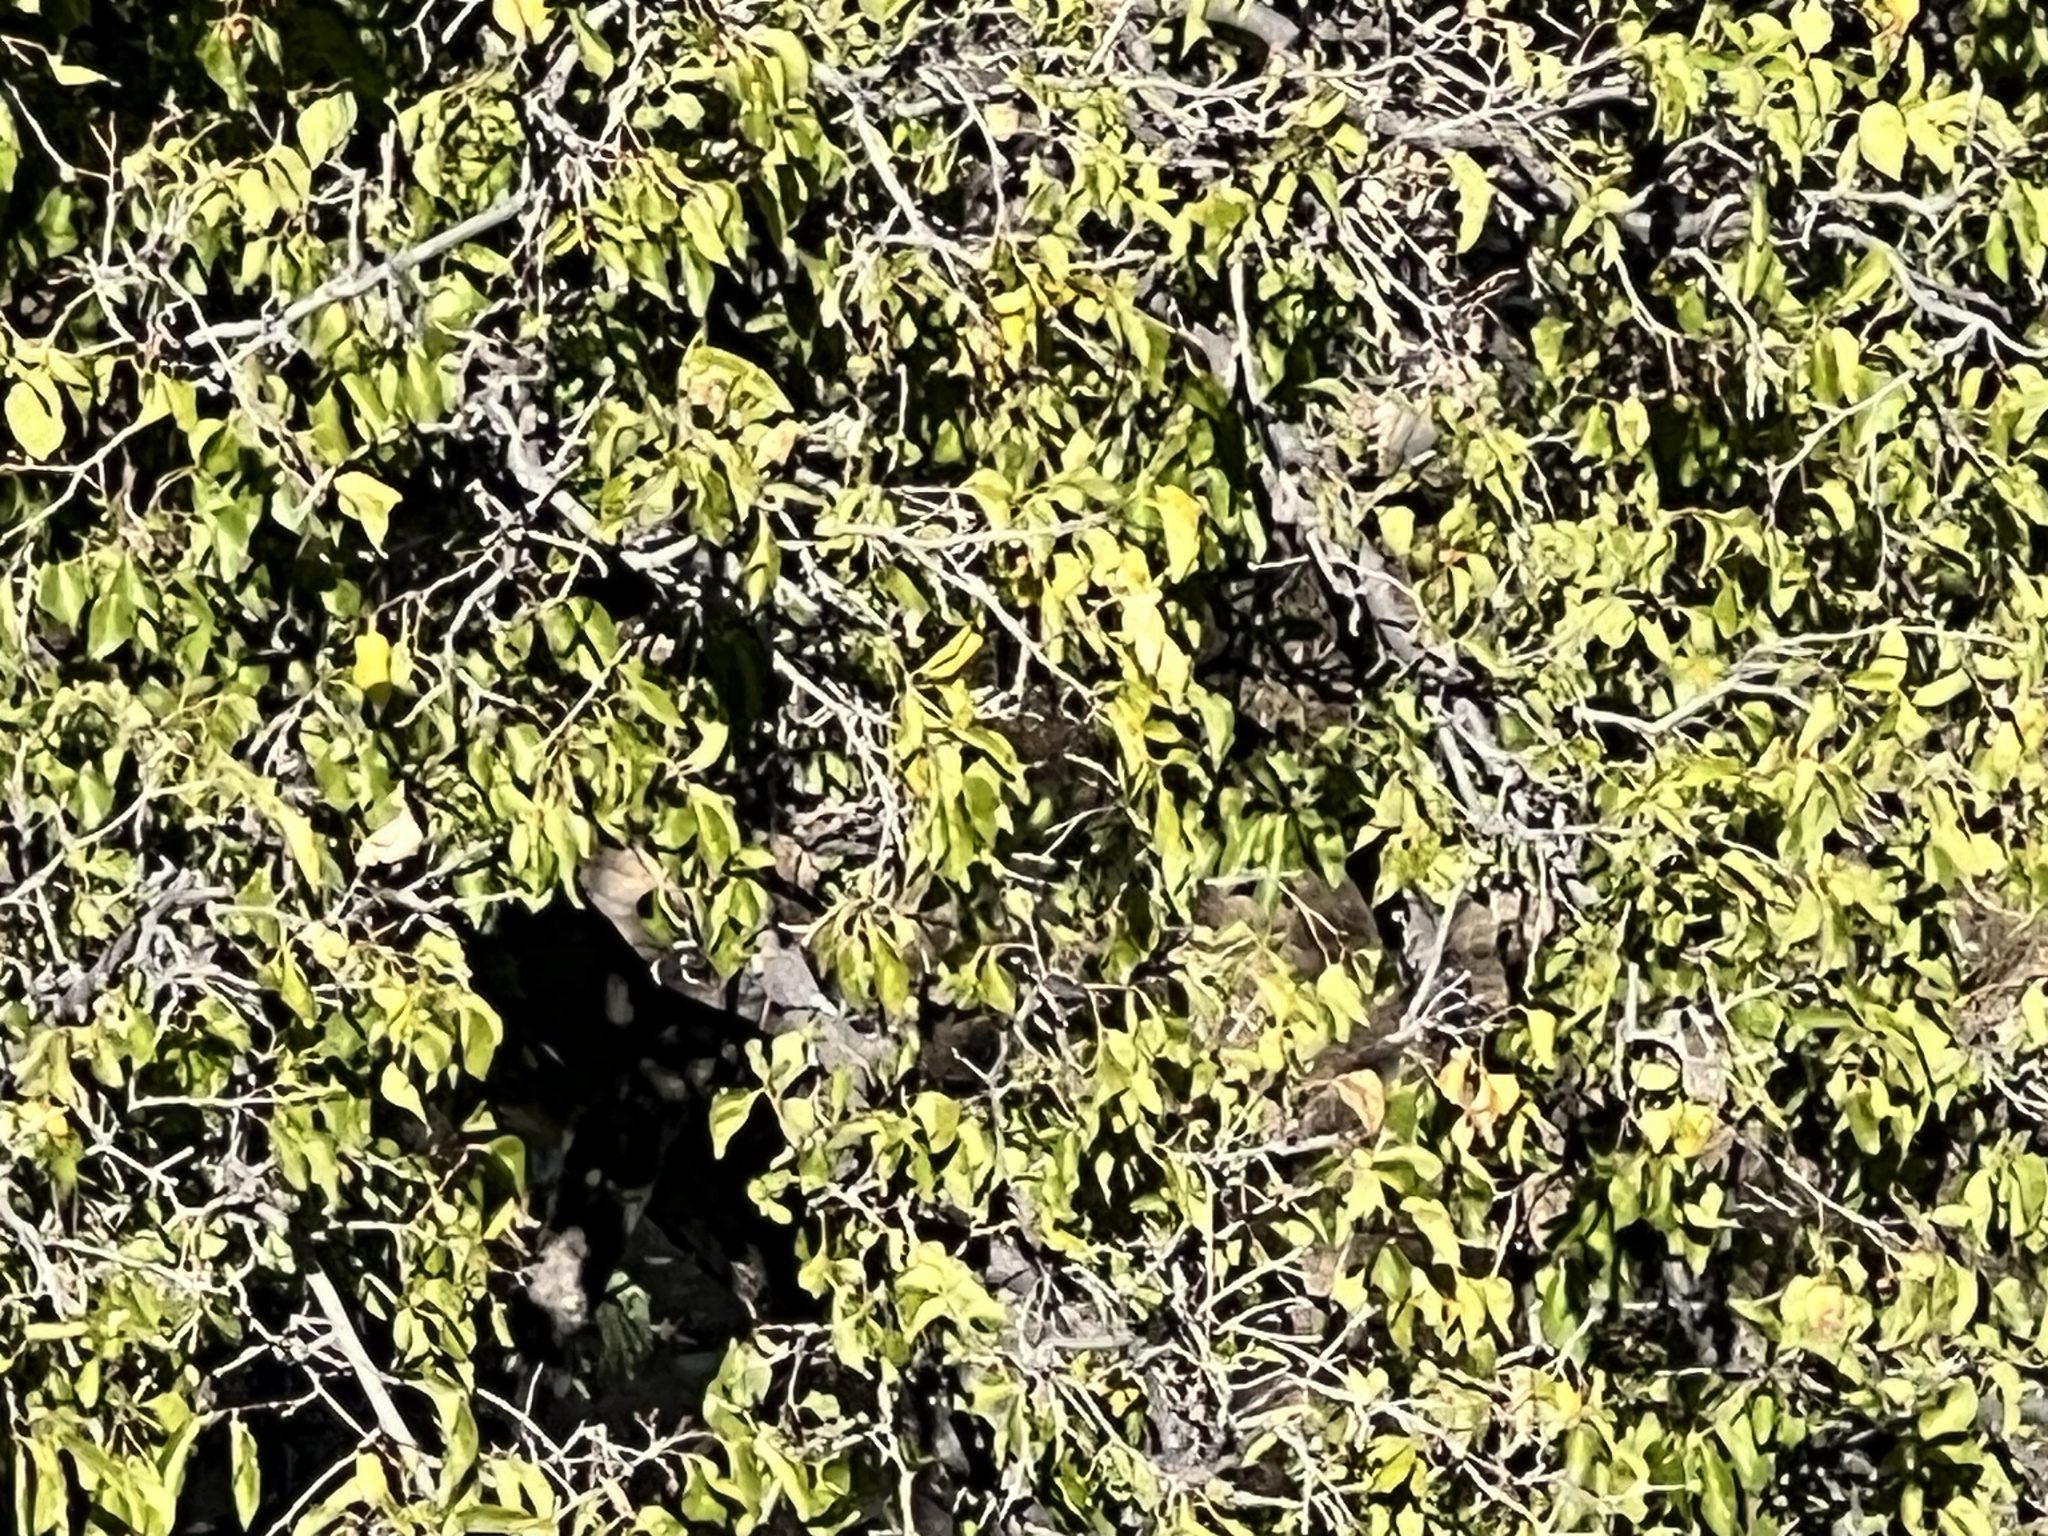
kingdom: Plantae
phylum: Tracheophyta
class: Magnoliopsida
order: Rosales
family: Cannabaceae
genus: Celtis
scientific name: Celtis reticulata
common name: Netleaf hackberry
